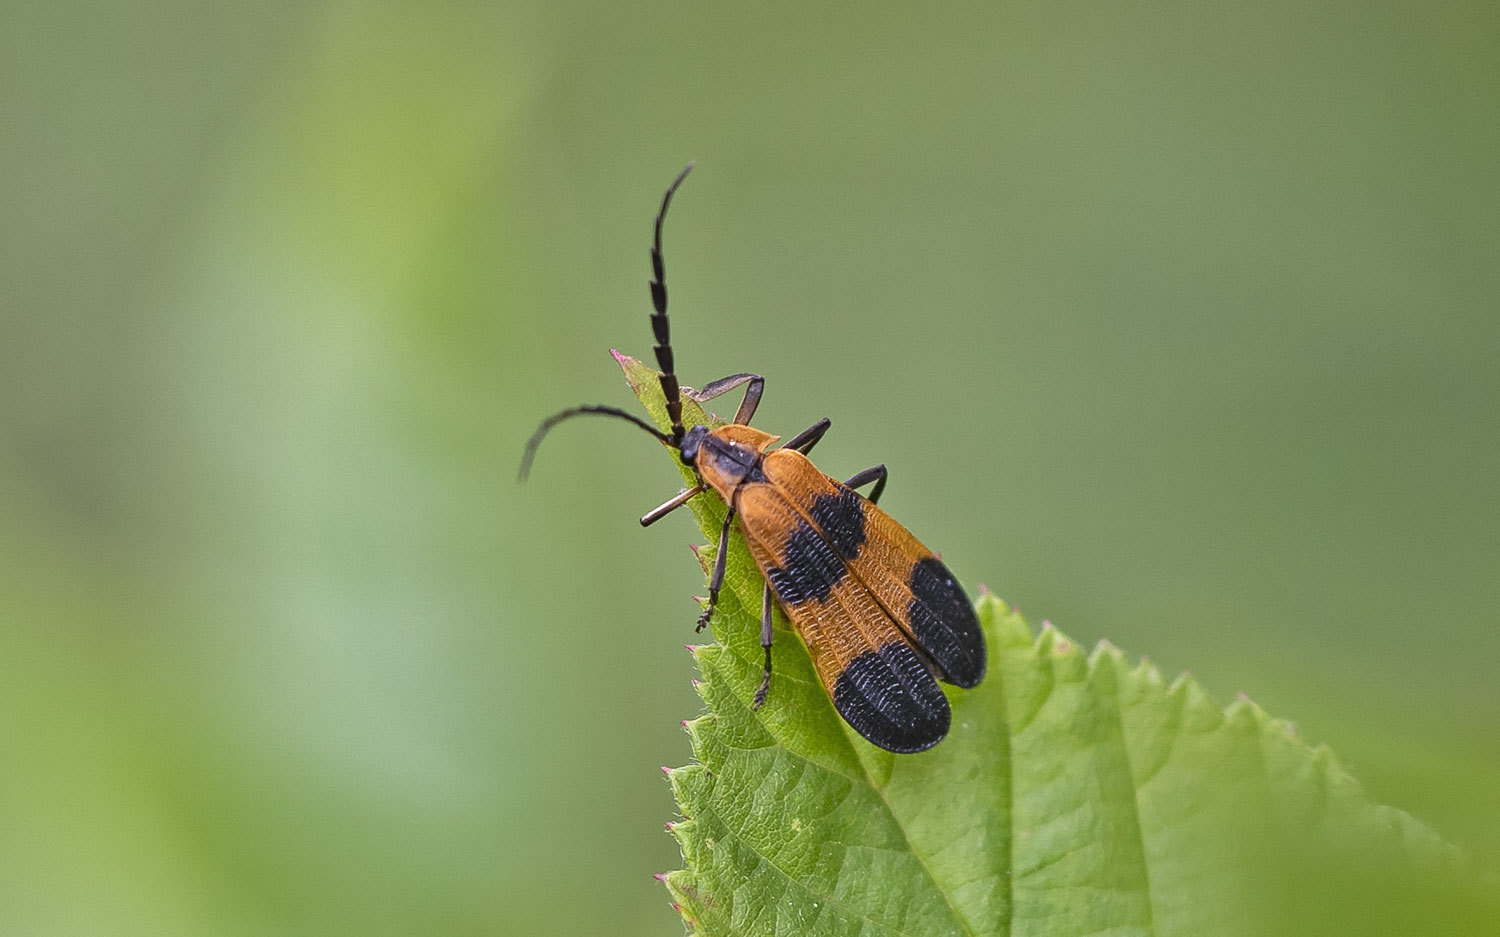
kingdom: Animalia
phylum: Arthropoda
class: Insecta
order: Coleoptera
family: Lycidae
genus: Calopteron
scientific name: Calopteron reticulatum
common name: Banded net-winged beetle
